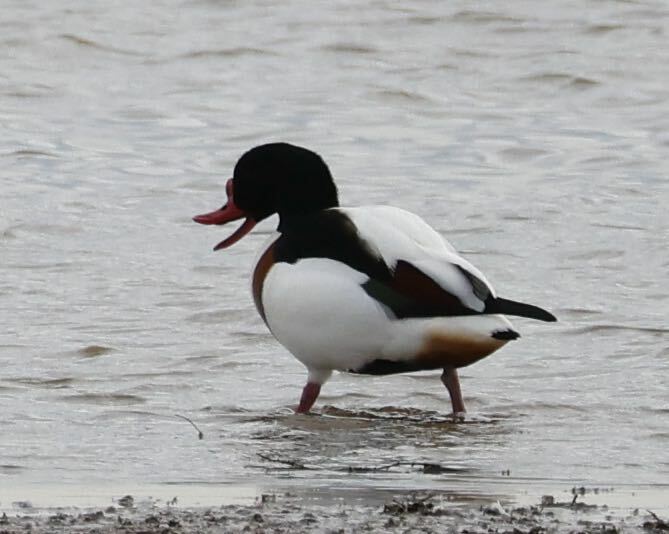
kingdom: Animalia
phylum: Chordata
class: Aves
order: Anseriformes
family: Anatidae
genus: Tadorna
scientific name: Tadorna tadorna
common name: Common shelduck
